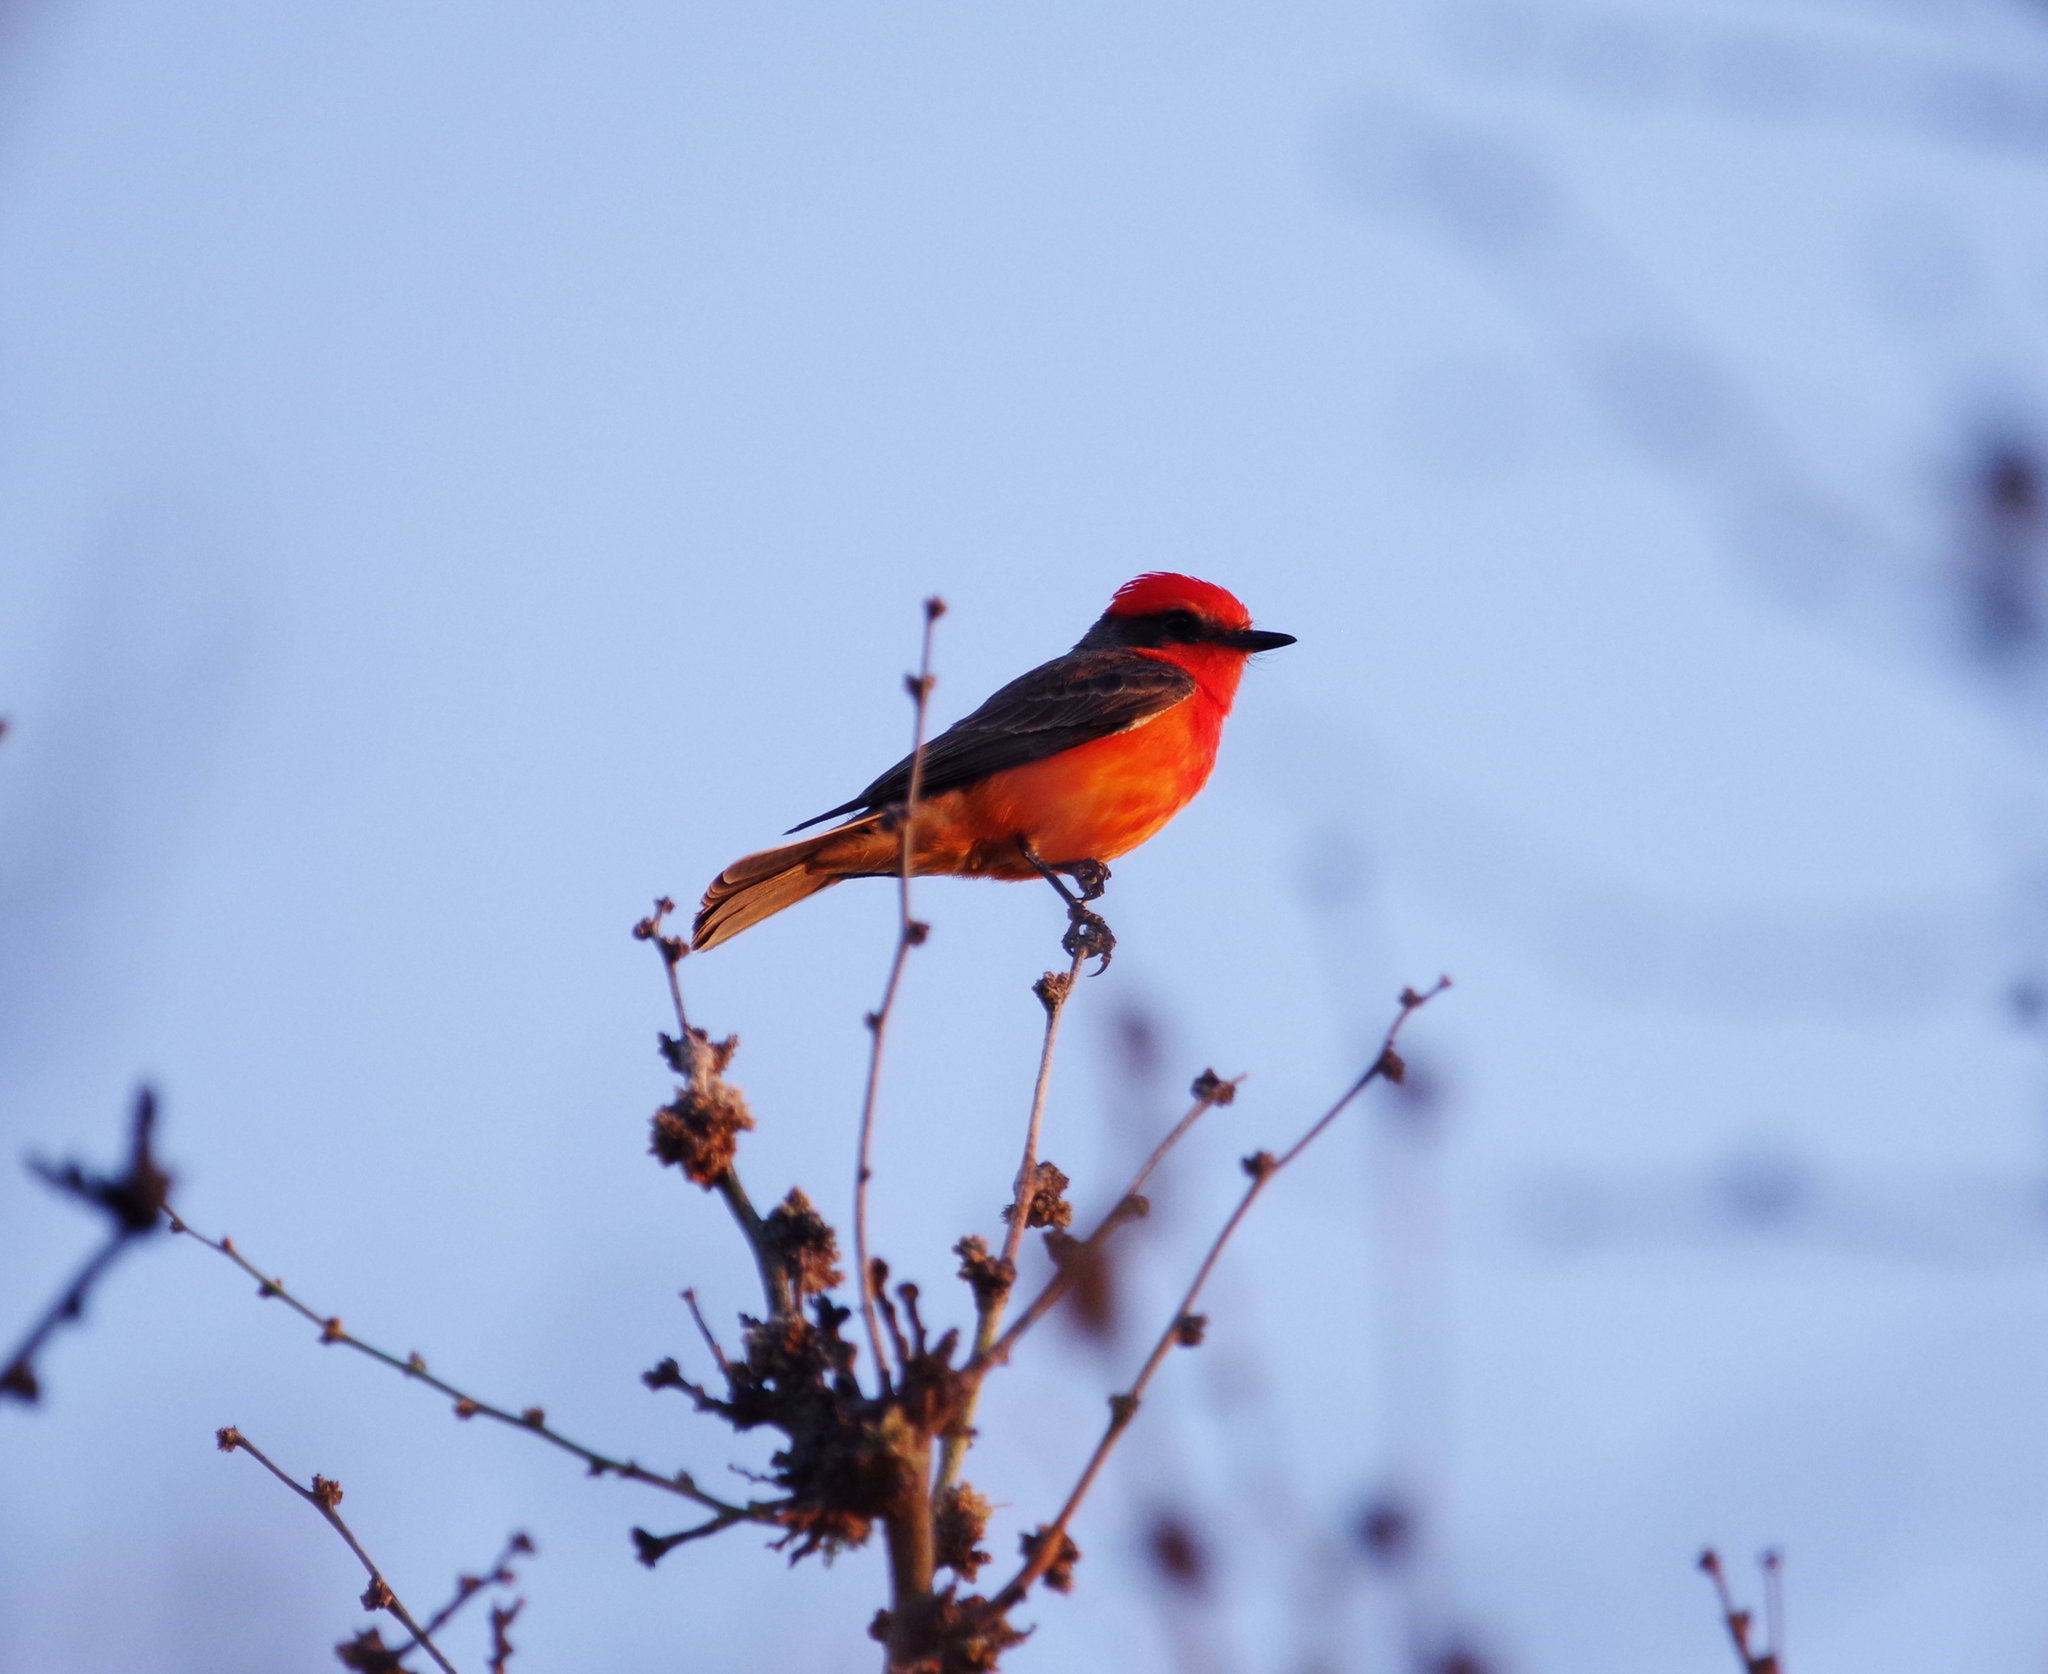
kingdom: Animalia
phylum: Chordata
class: Aves
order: Passeriformes
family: Tyrannidae
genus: Pyrocephalus
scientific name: Pyrocephalus rubinus
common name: Vermilion flycatcher
